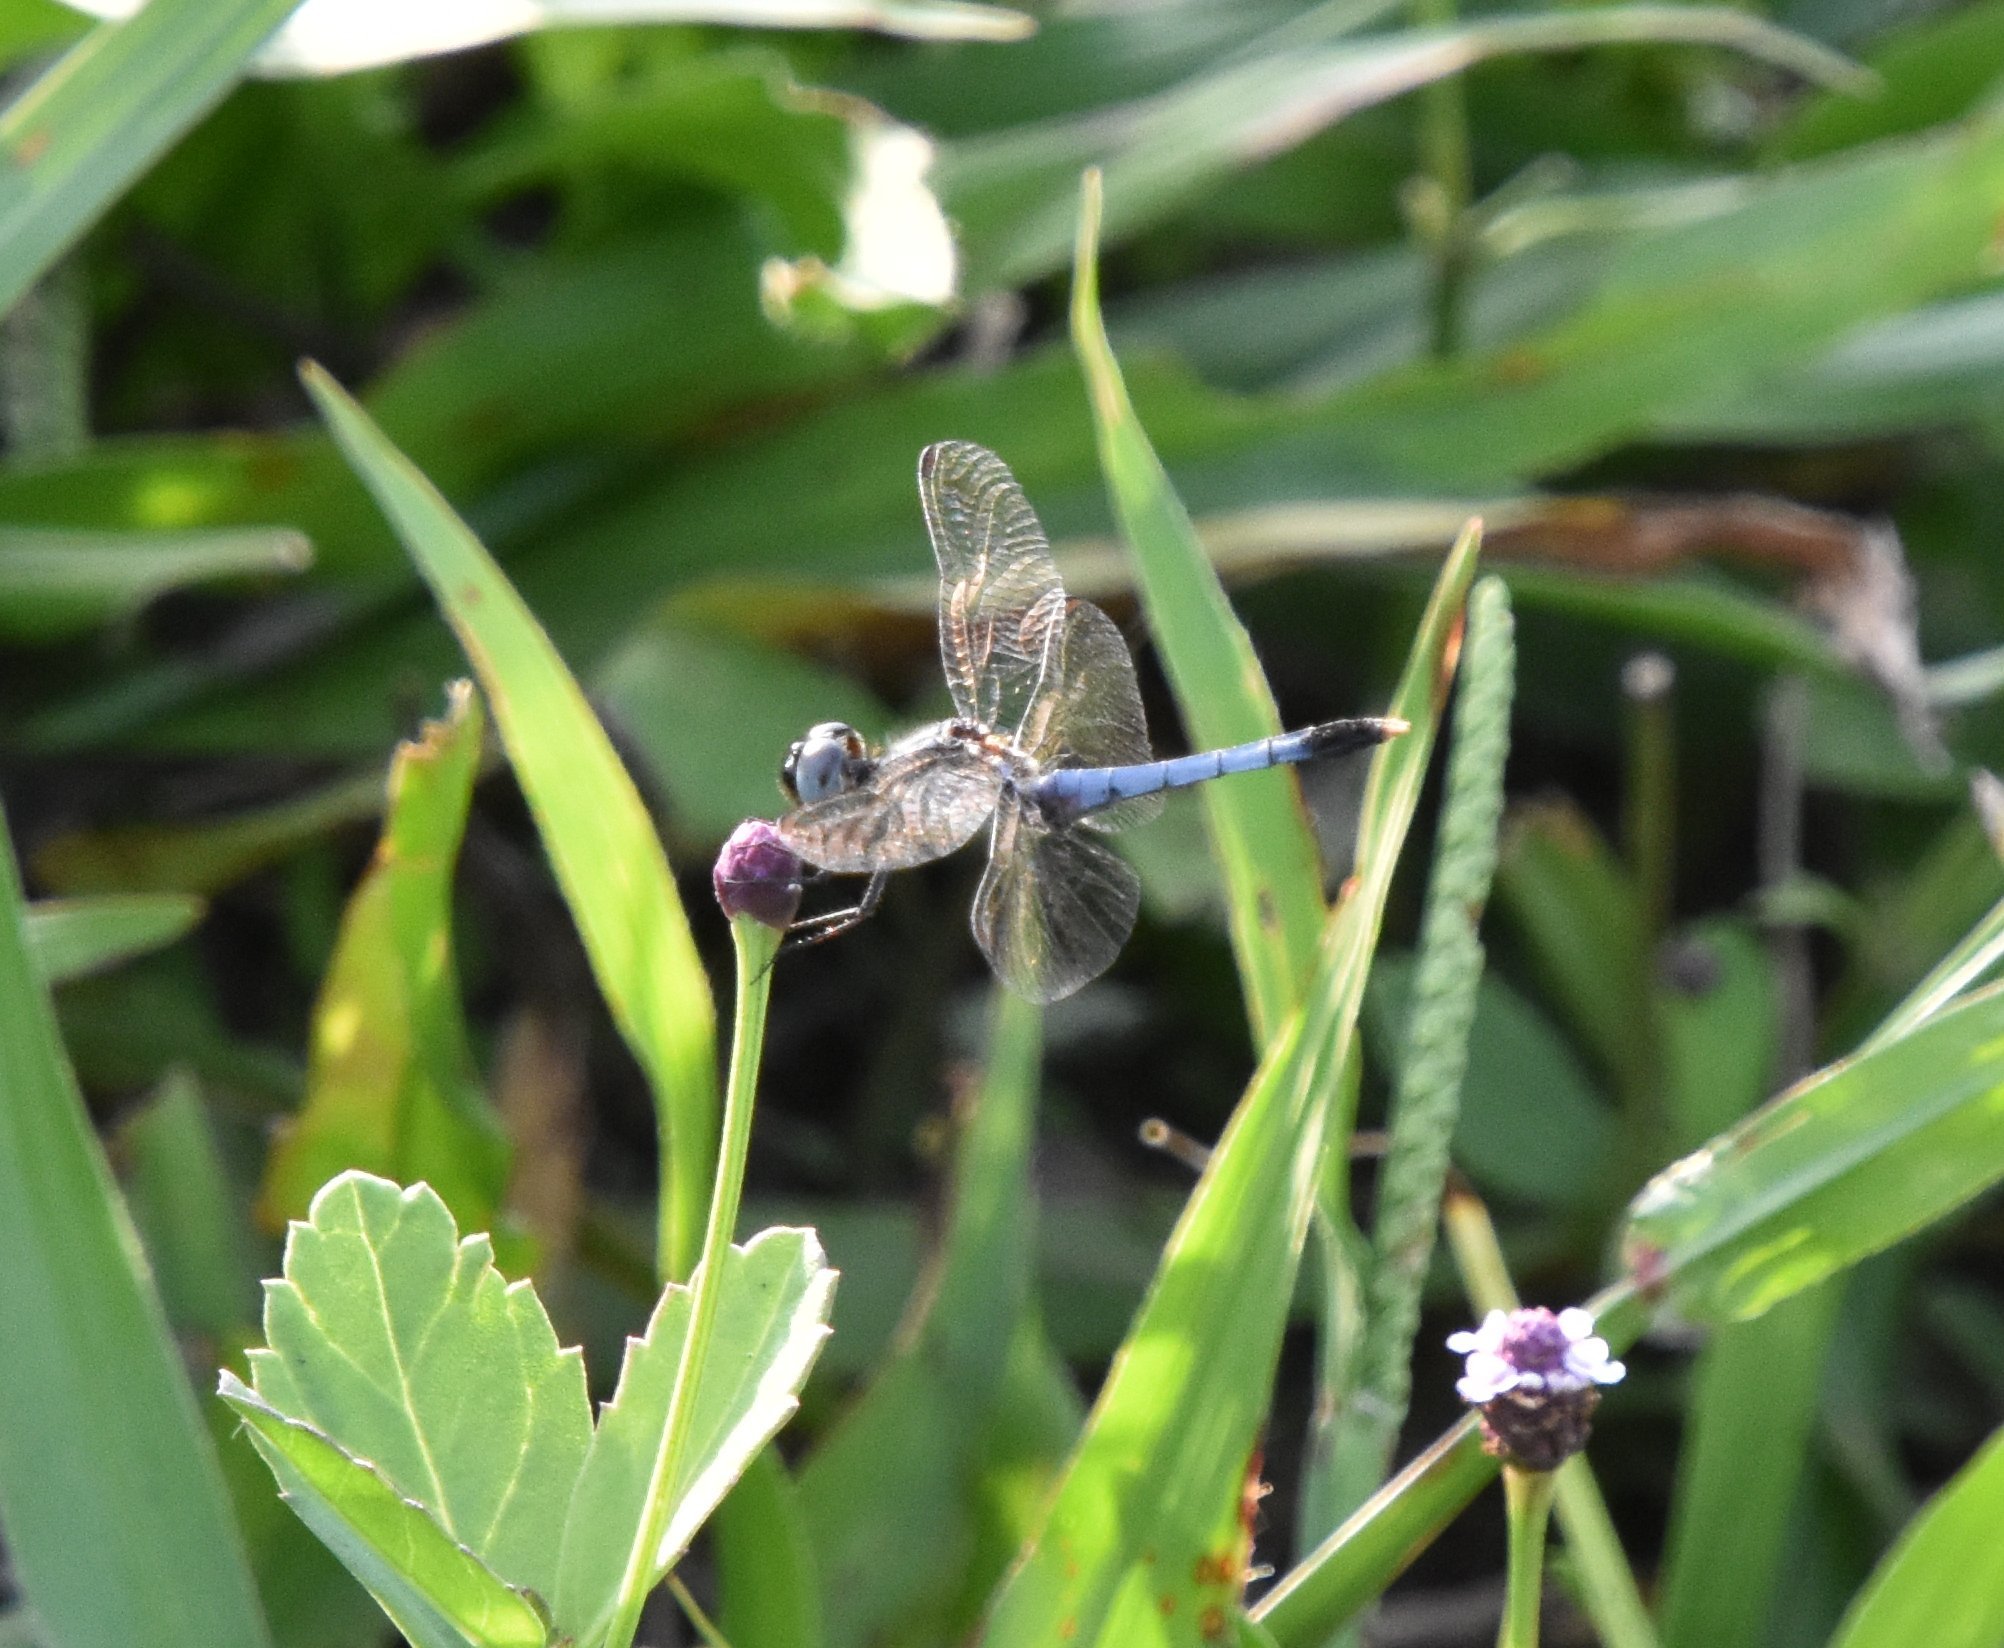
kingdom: Animalia
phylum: Arthropoda
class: Insecta
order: Odonata
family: Libellulidae
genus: Erythrodiplax
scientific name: Erythrodiplax minuscula
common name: Little blue dragonlet
